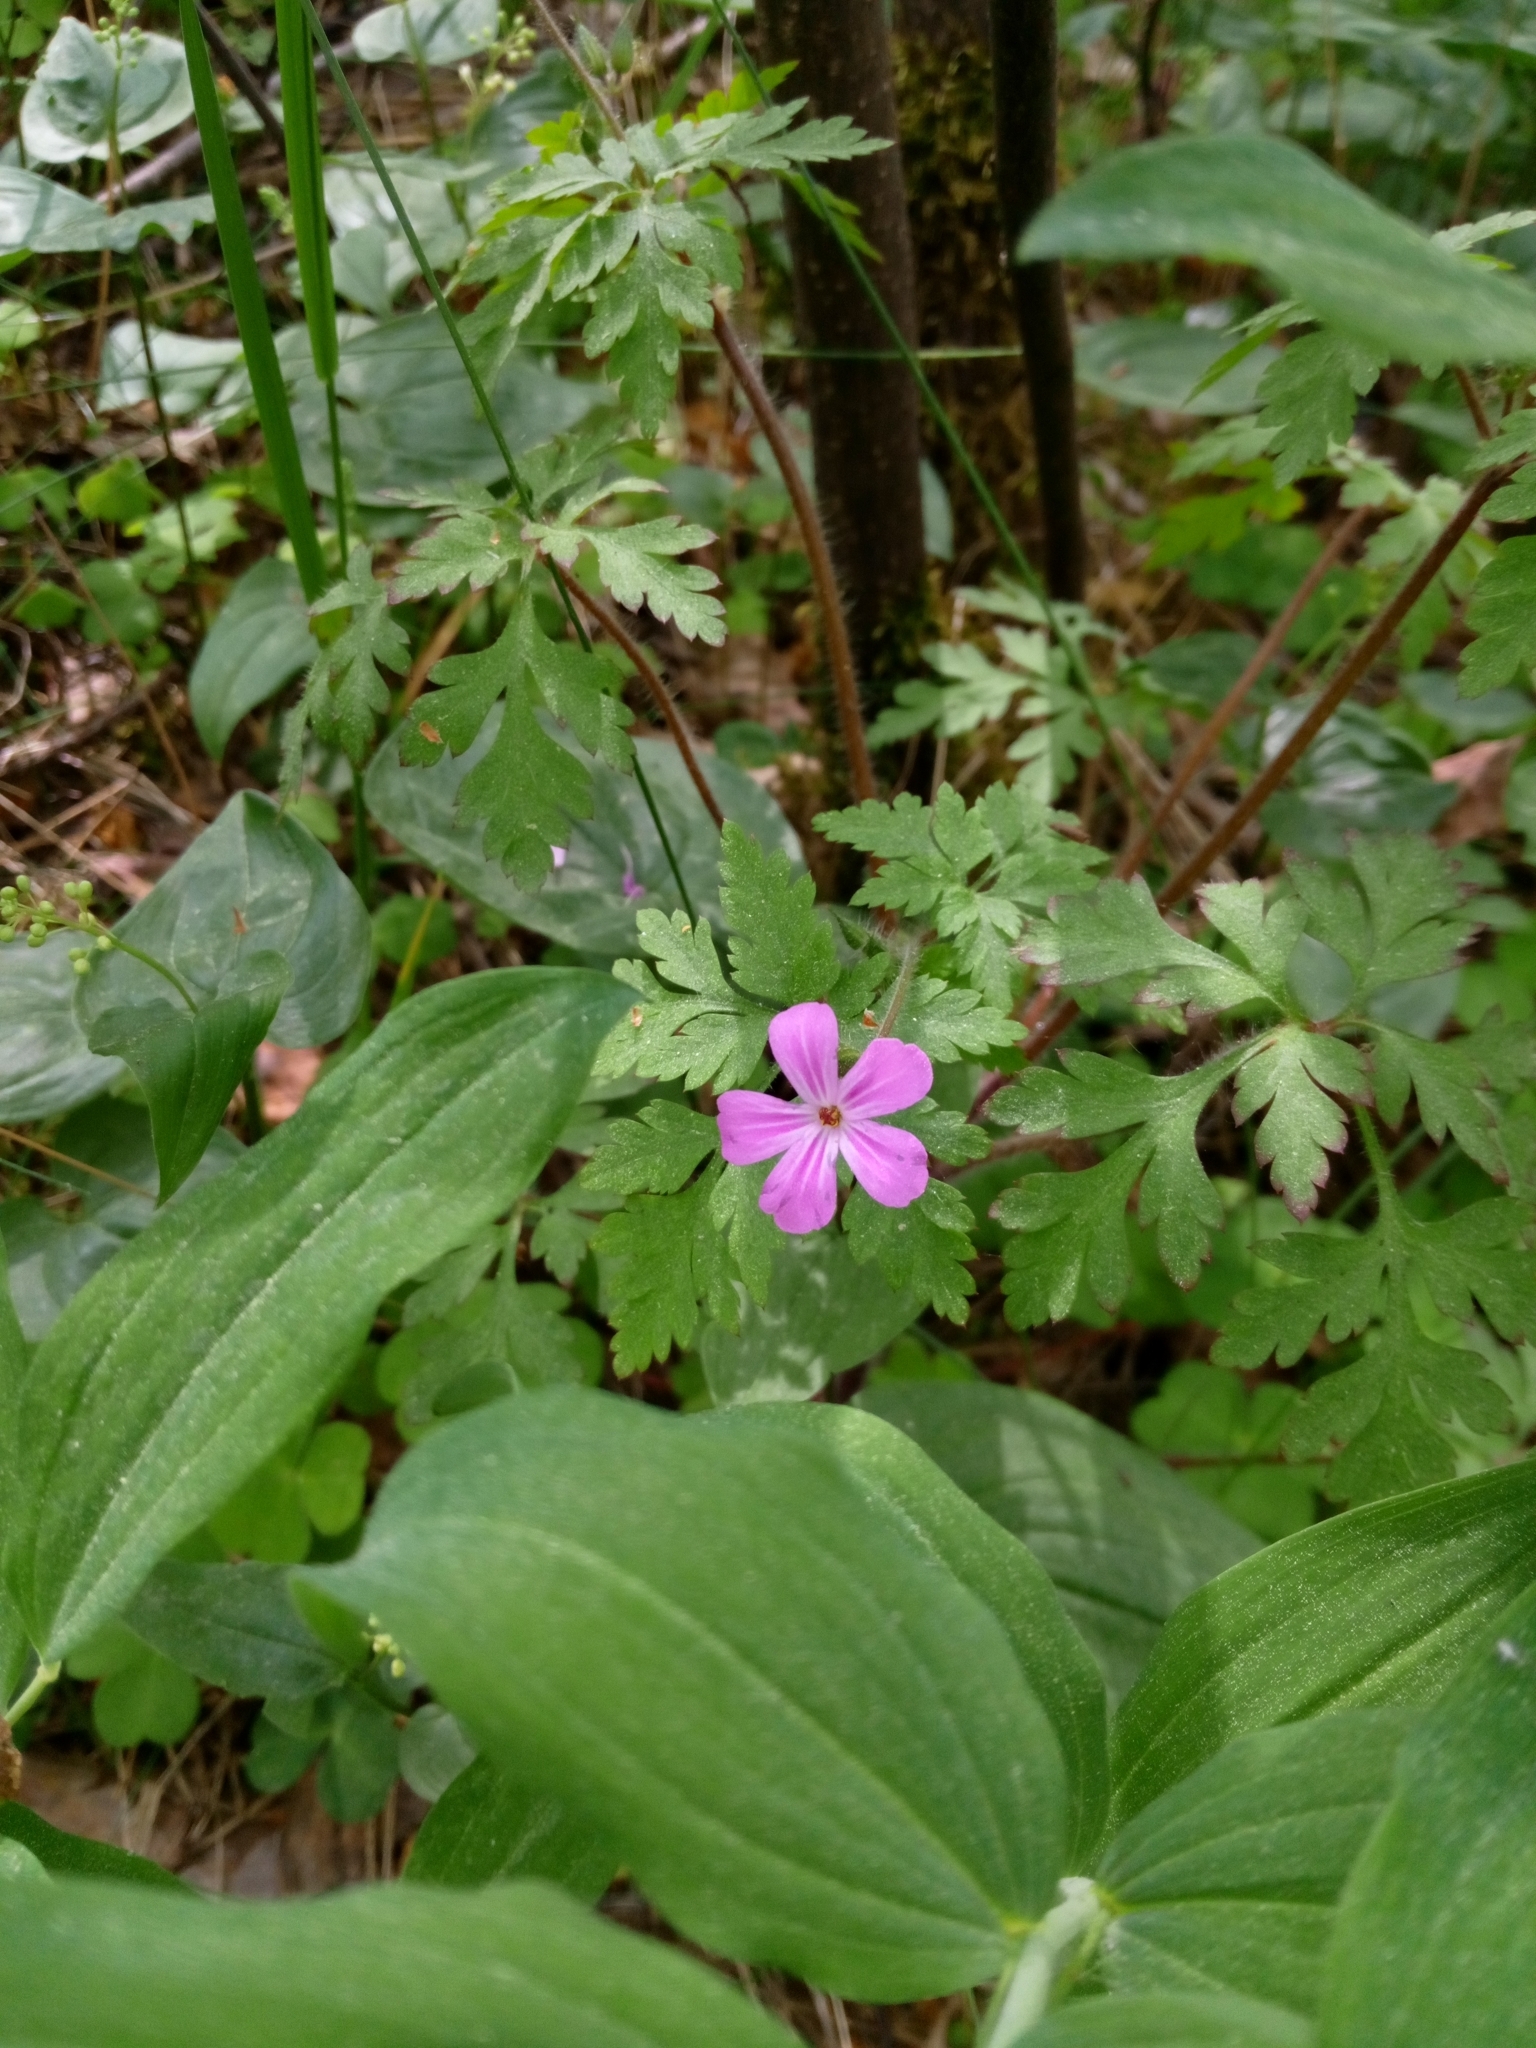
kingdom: Plantae
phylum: Tracheophyta
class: Magnoliopsida
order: Geraniales
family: Geraniaceae
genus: Geranium
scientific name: Geranium robertianum
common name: Herb-robert
